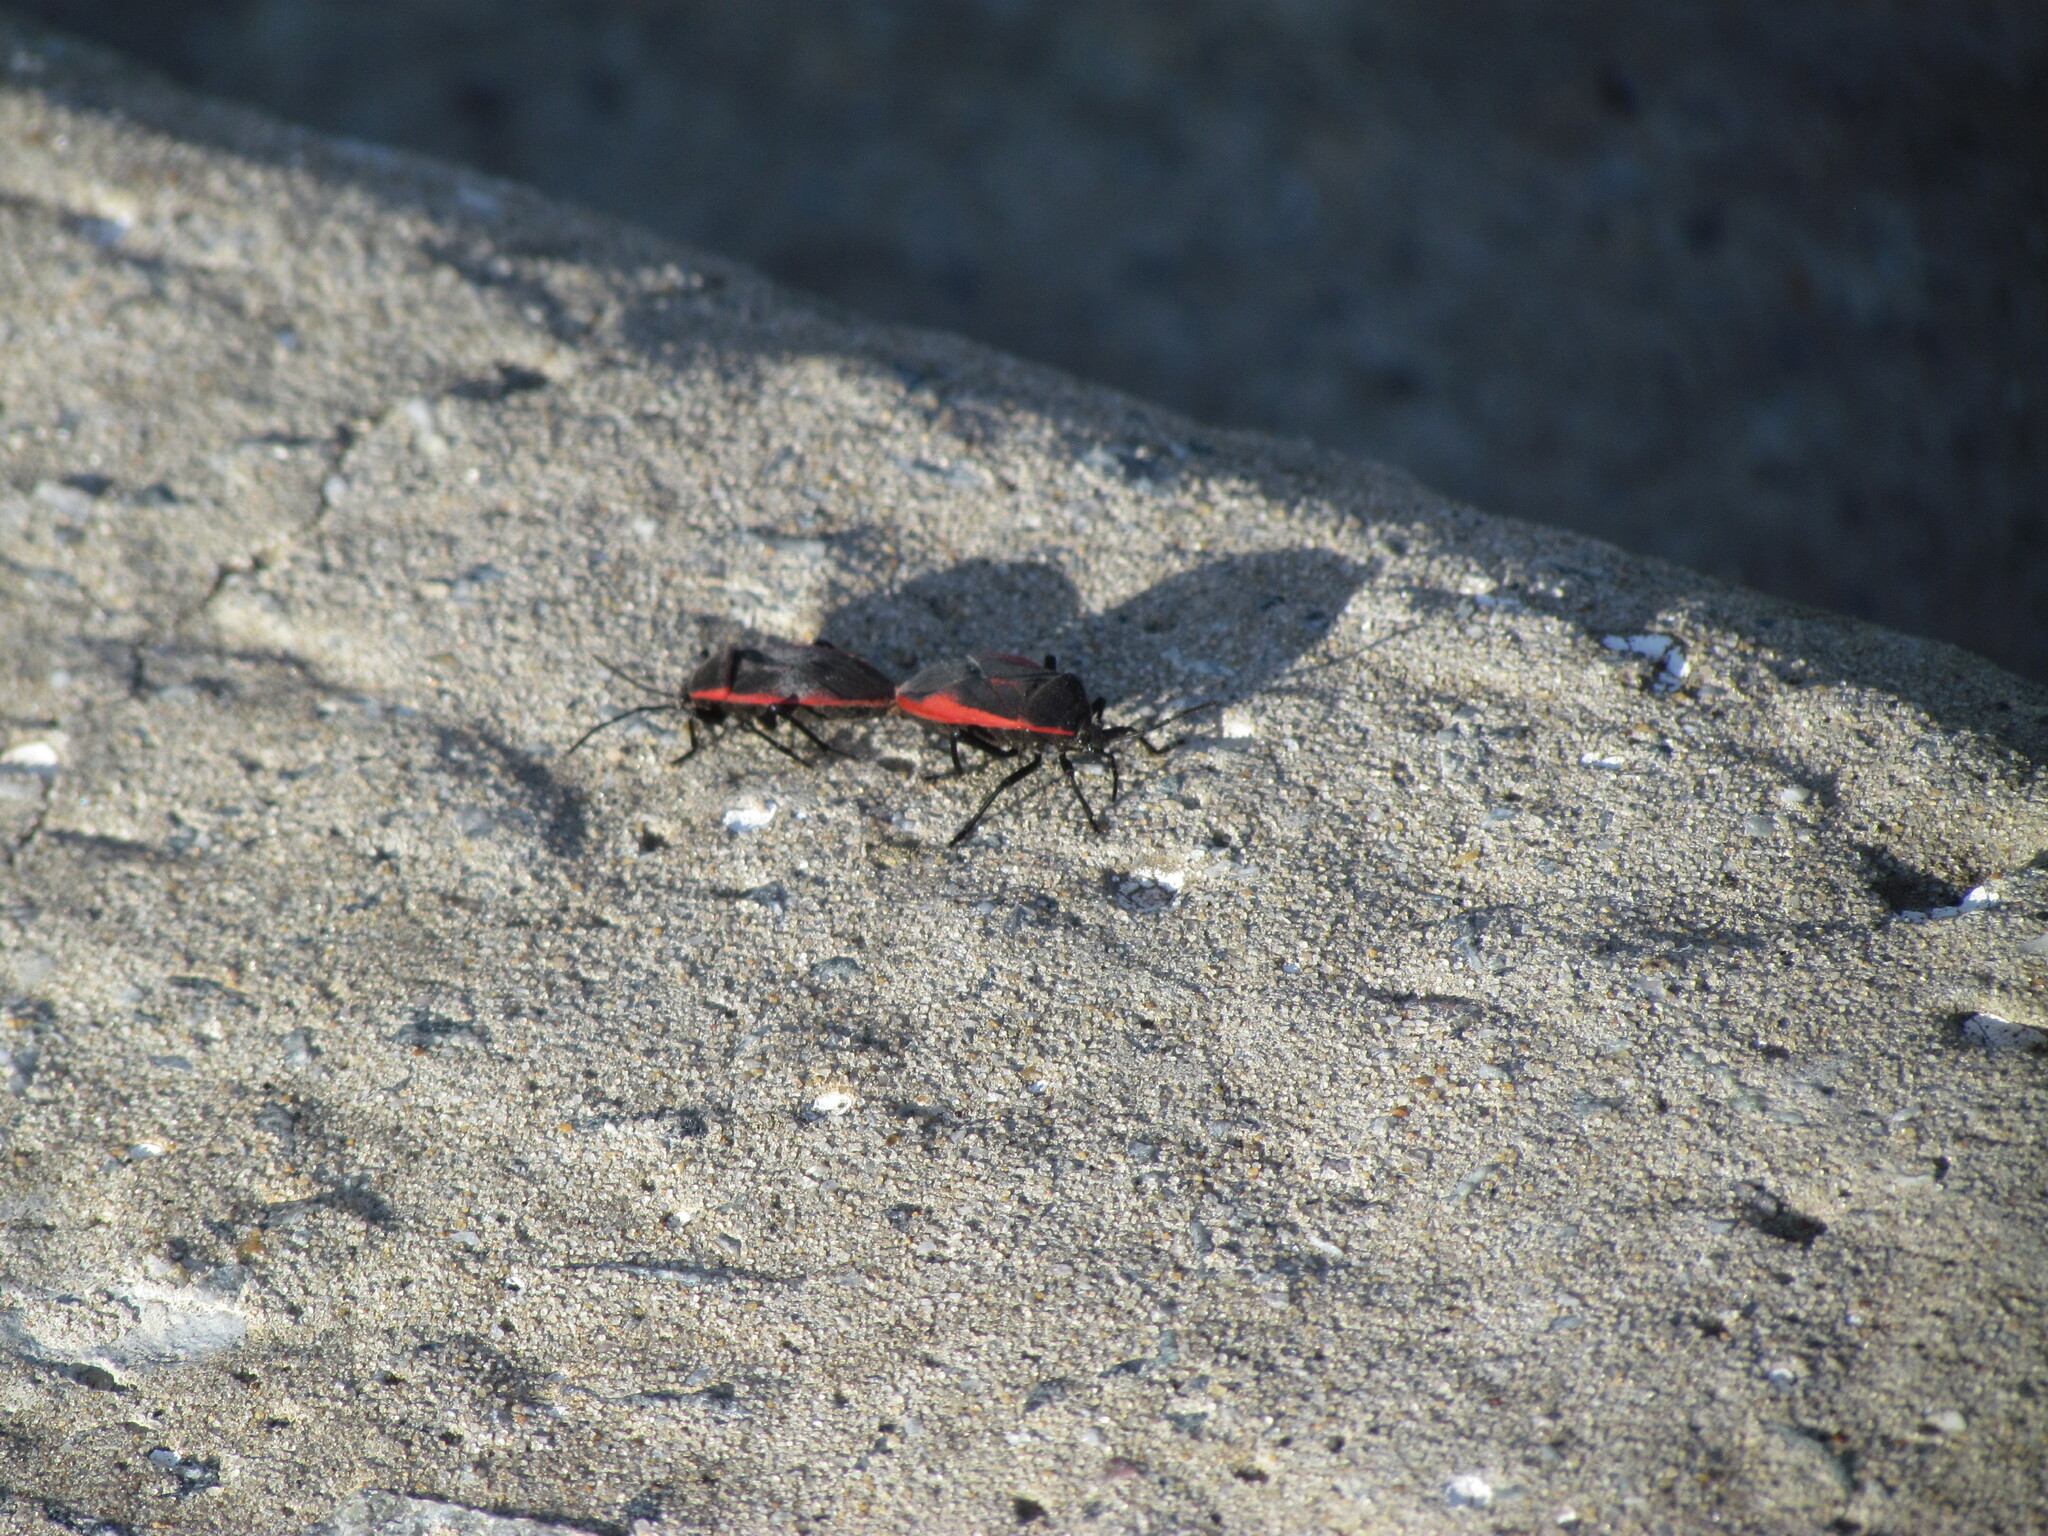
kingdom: Animalia
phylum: Arthropoda
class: Insecta
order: Hemiptera
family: Largidae
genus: Largus
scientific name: Largus rufipennis
